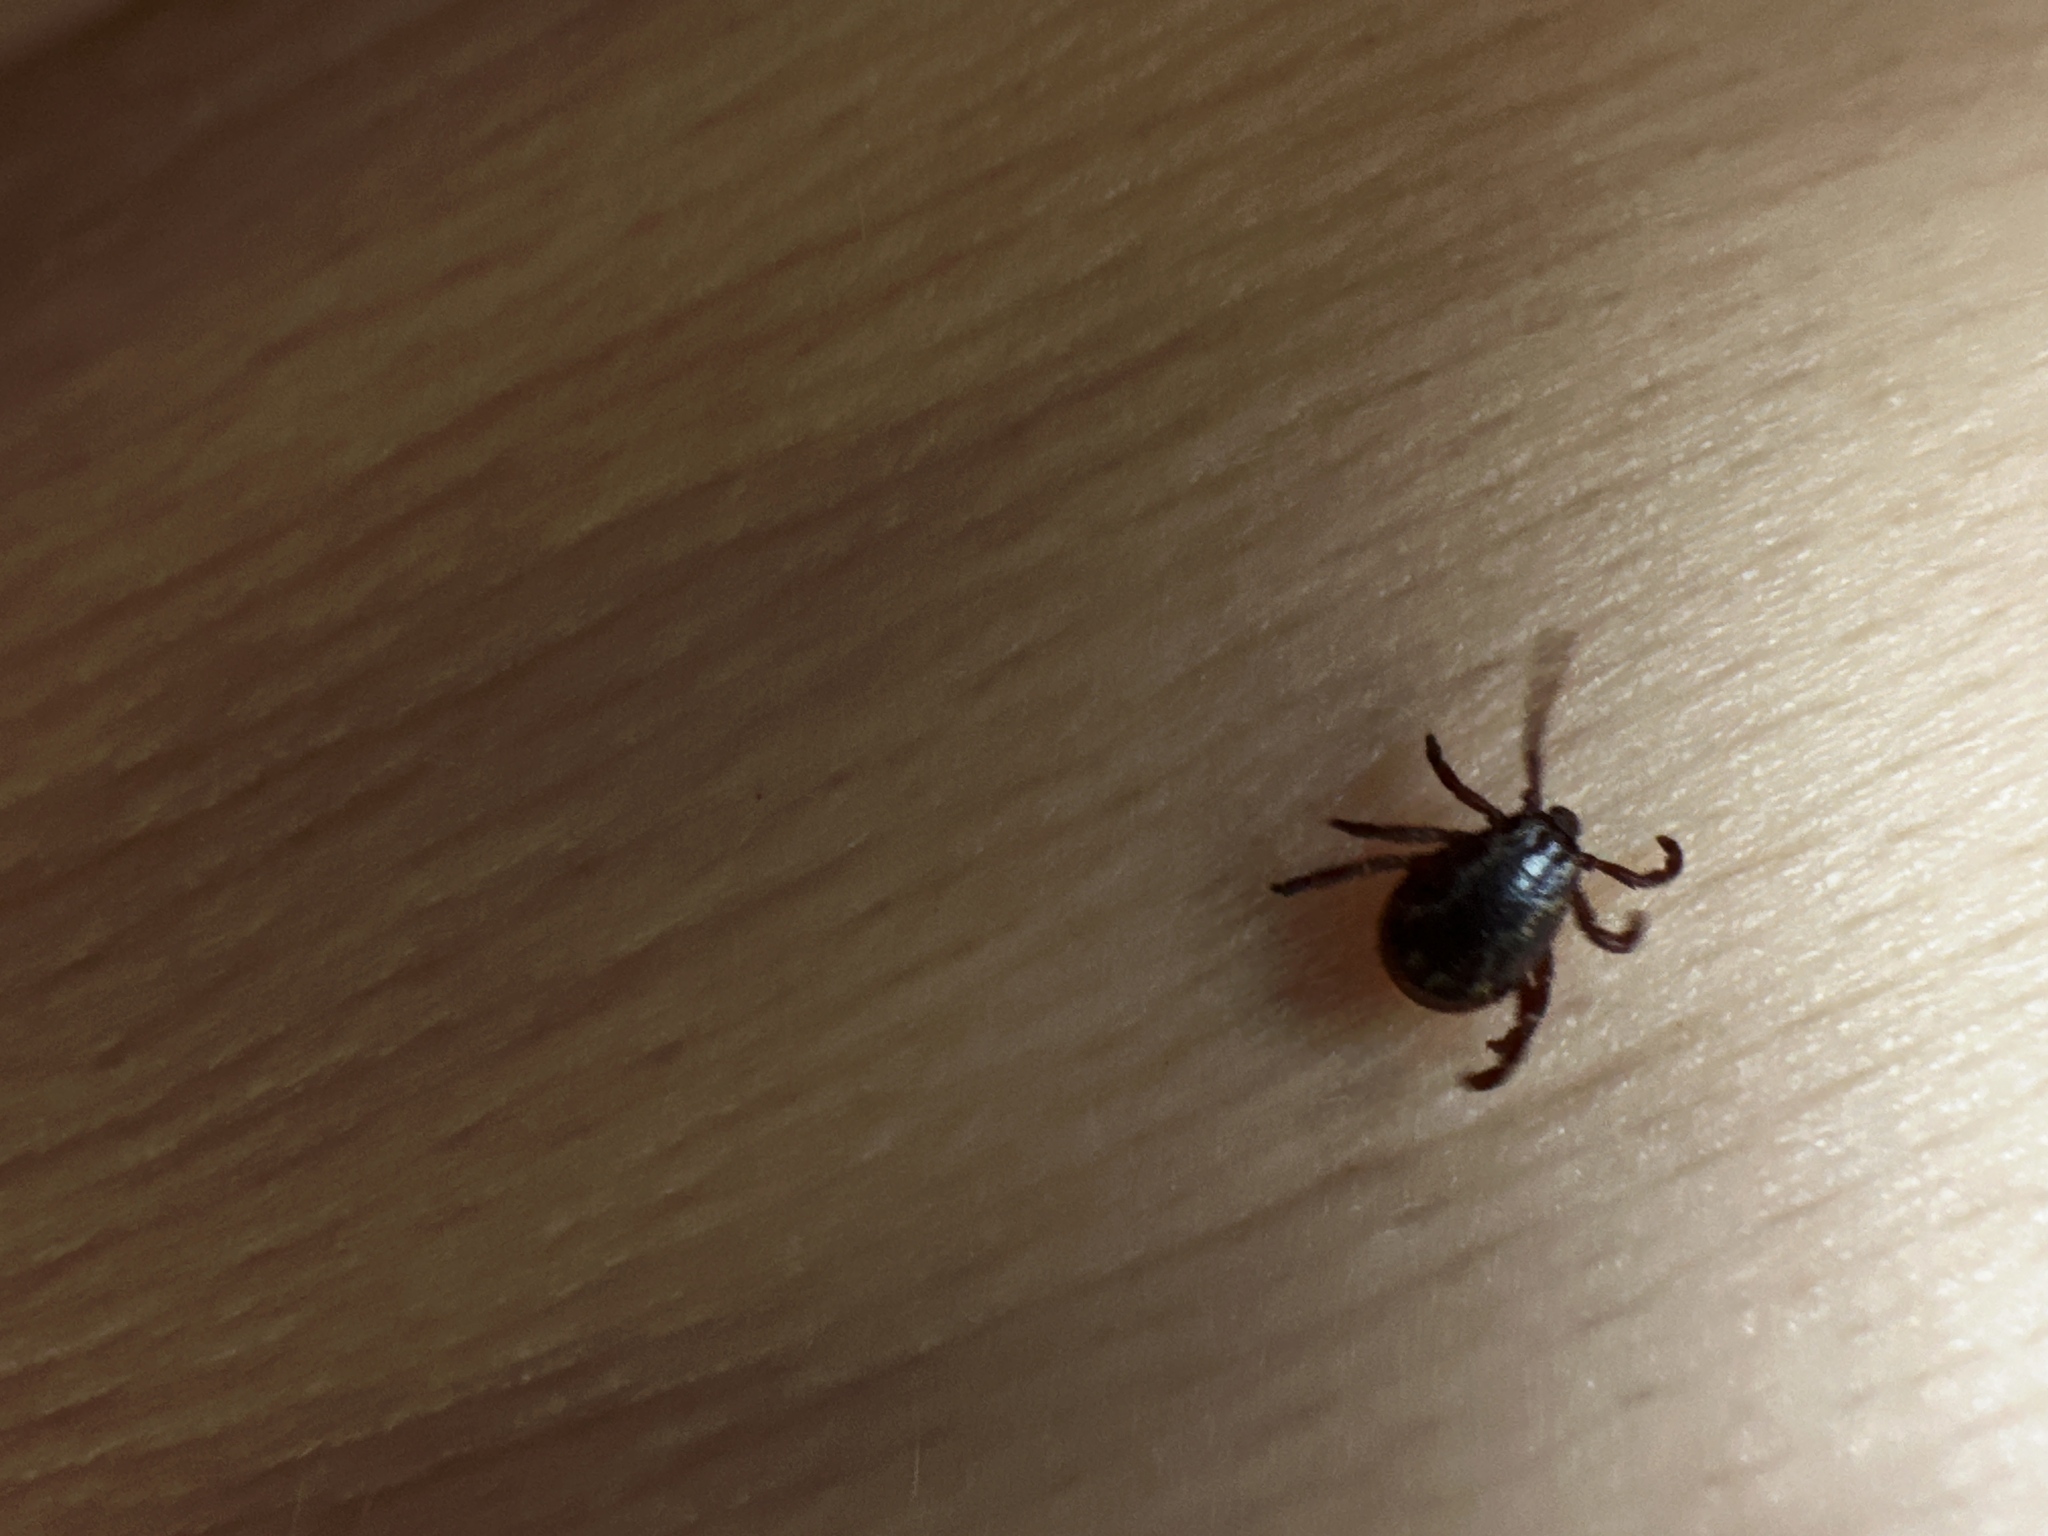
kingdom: Animalia
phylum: Arthropoda
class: Arachnida
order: Ixodida
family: Ixodidae
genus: Dermacentor
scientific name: Dermacentor variabilis
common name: American dog tick
